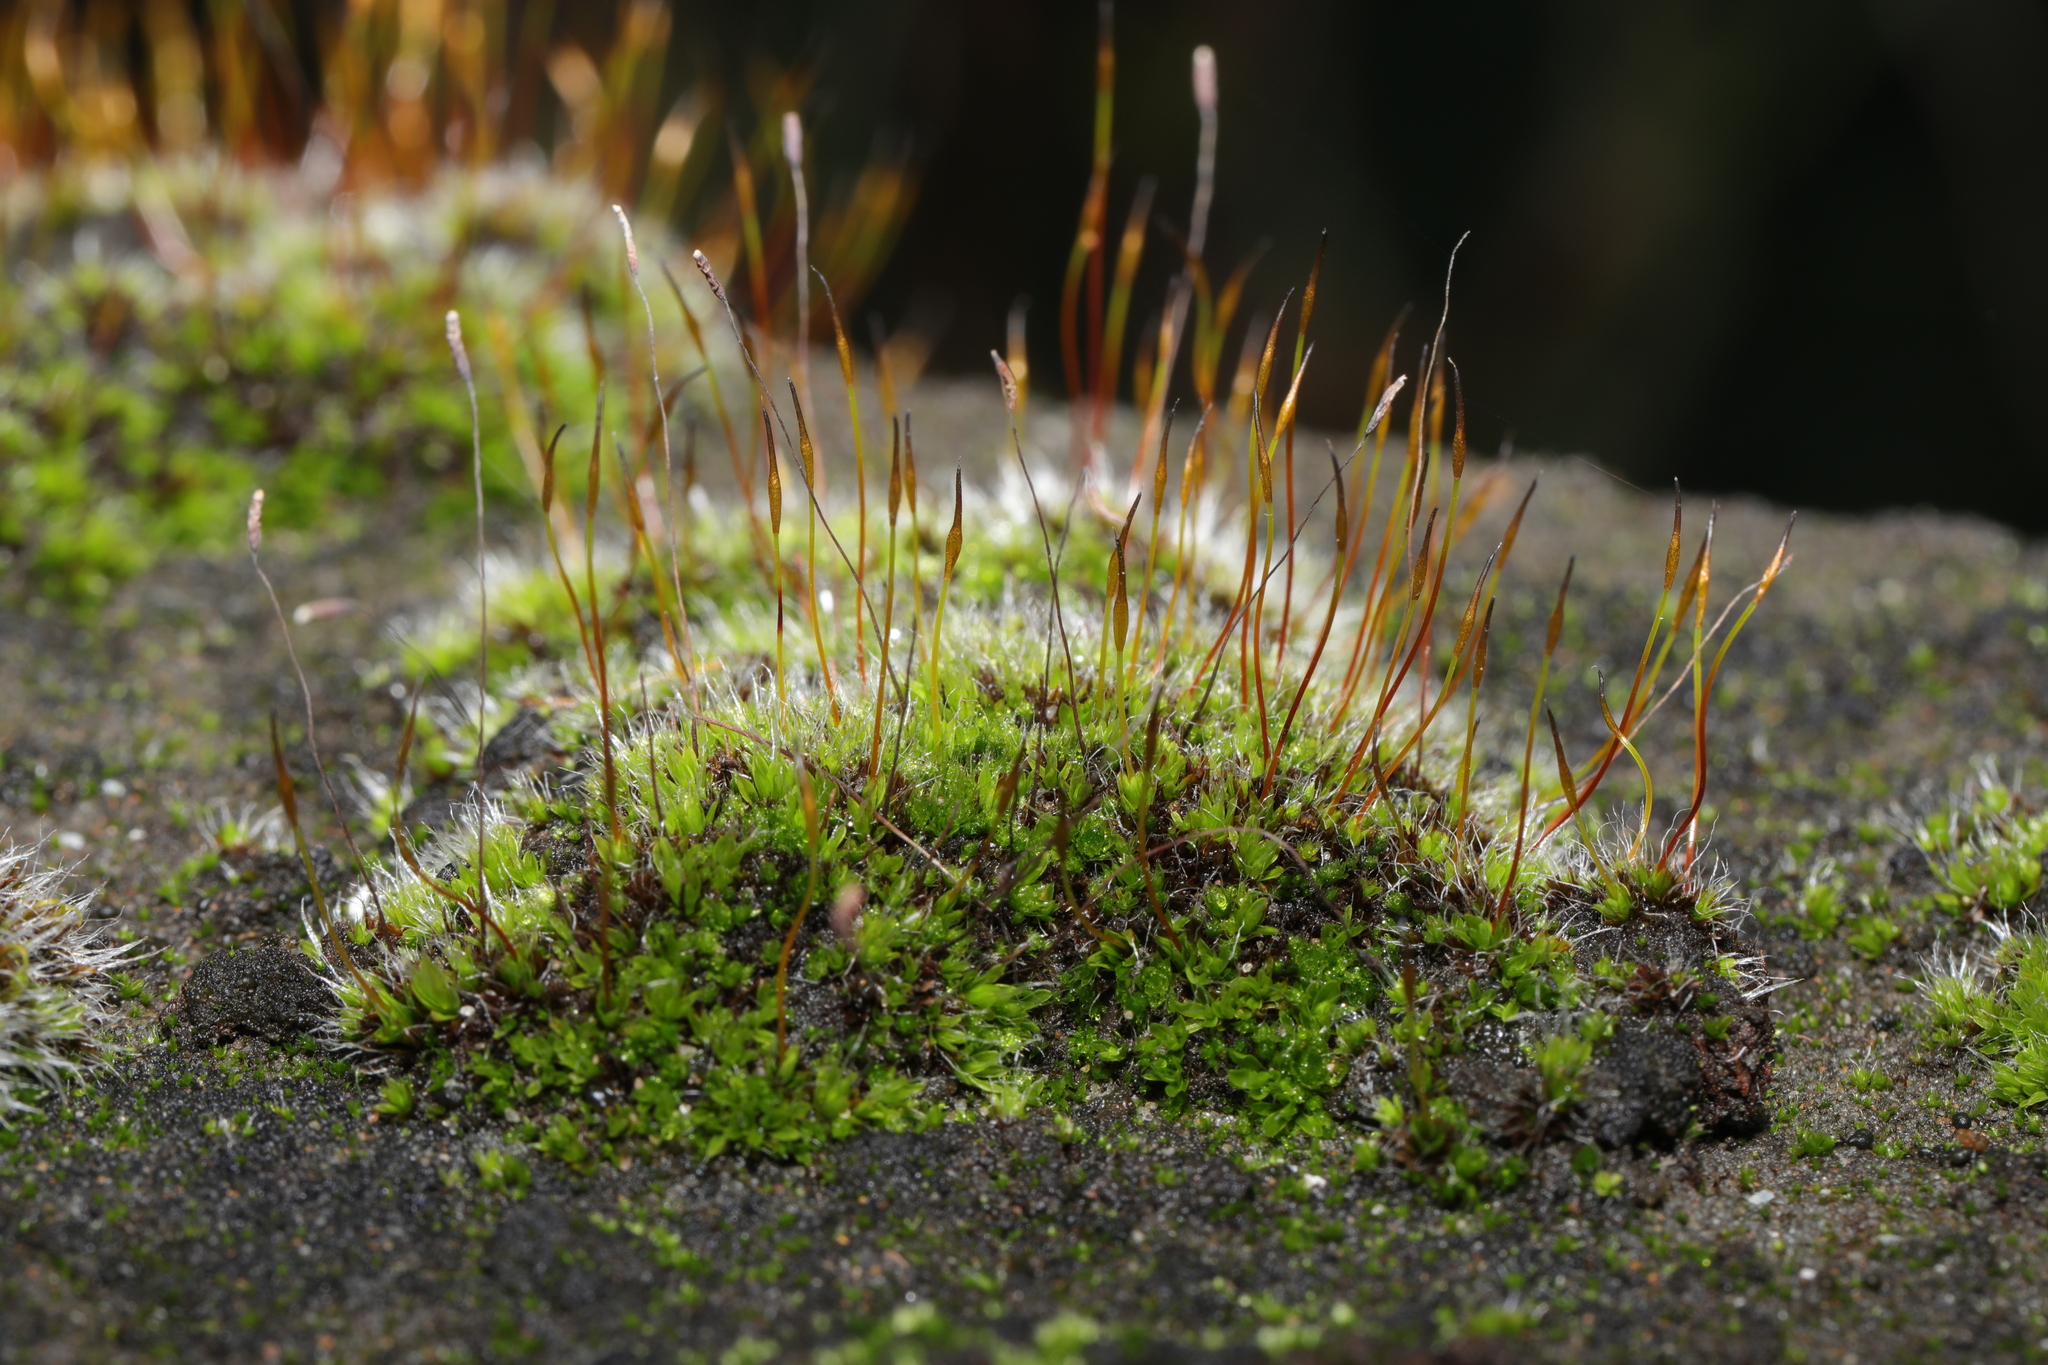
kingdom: Plantae
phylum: Bryophyta
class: Bryopsida
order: Pottiales
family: Pottiaceae
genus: Tortula
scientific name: Tortula muralis
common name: Wall screw-moss
